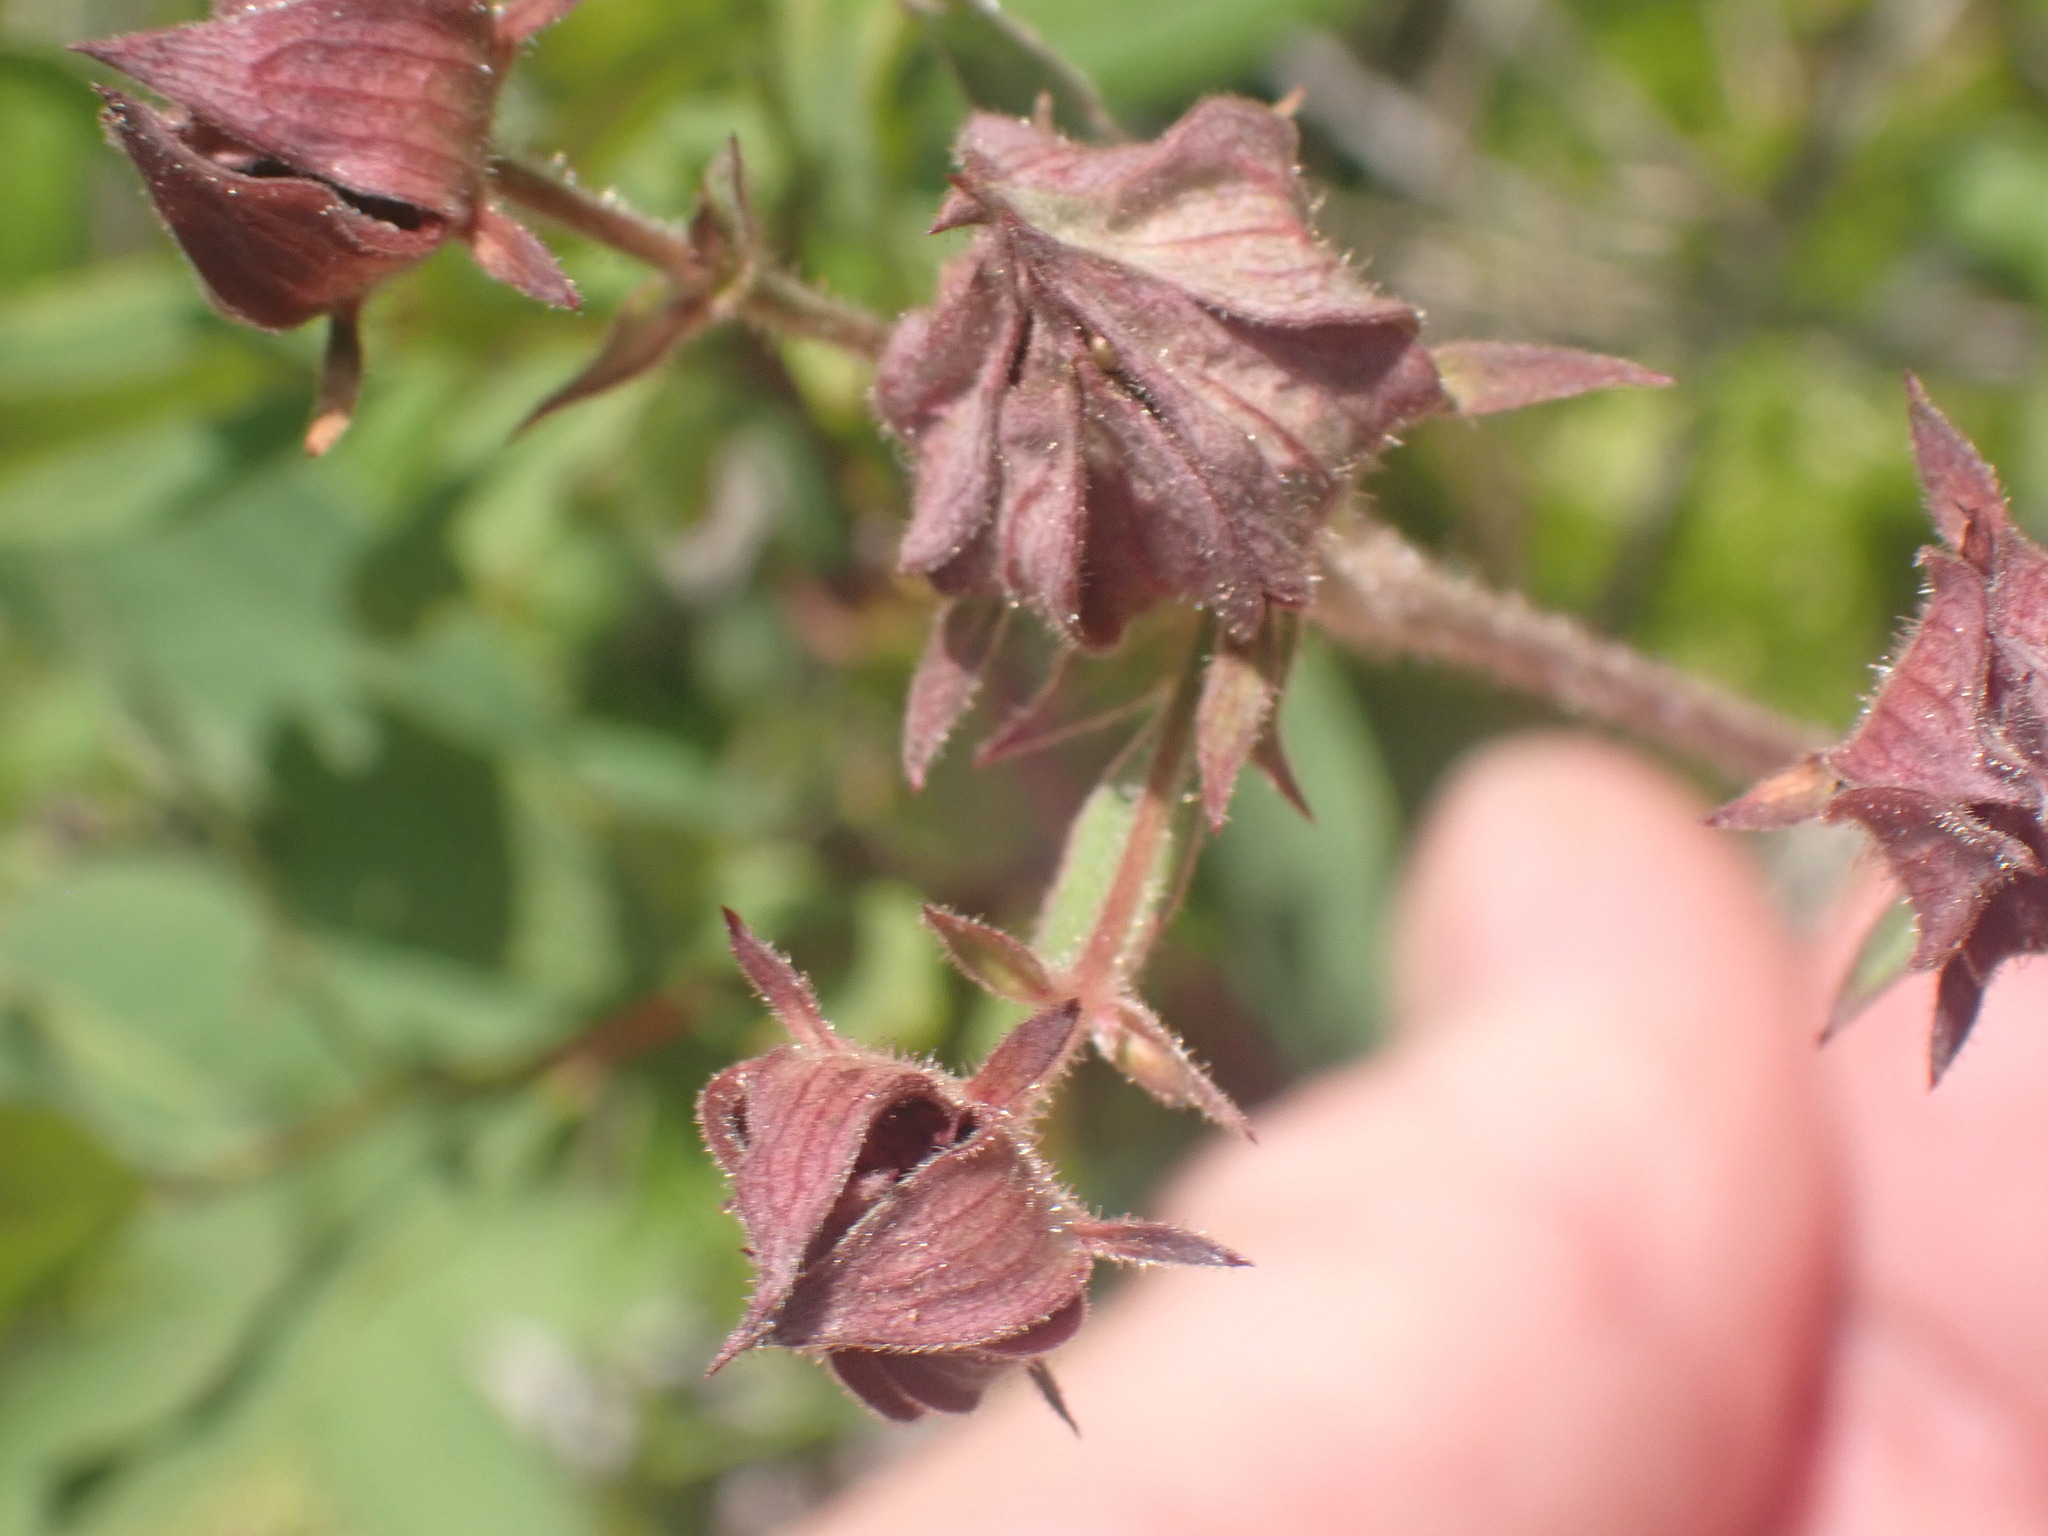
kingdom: Plantae
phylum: Tracheophyta
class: Magnoliopsida
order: Rosales
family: Rosaceae
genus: Comarum
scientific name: Comarum palustre
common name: Marsh cinquefoil
